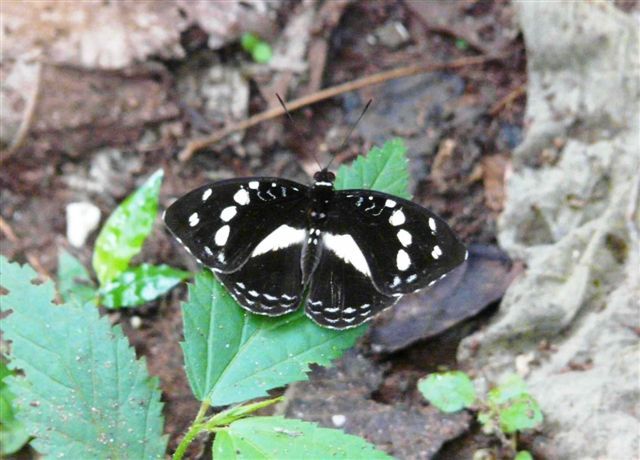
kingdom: Animalia
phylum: Arthropoda
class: Insecta
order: Lepidoptera
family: Nymphalidae
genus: Aterica
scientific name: Aterica galene
